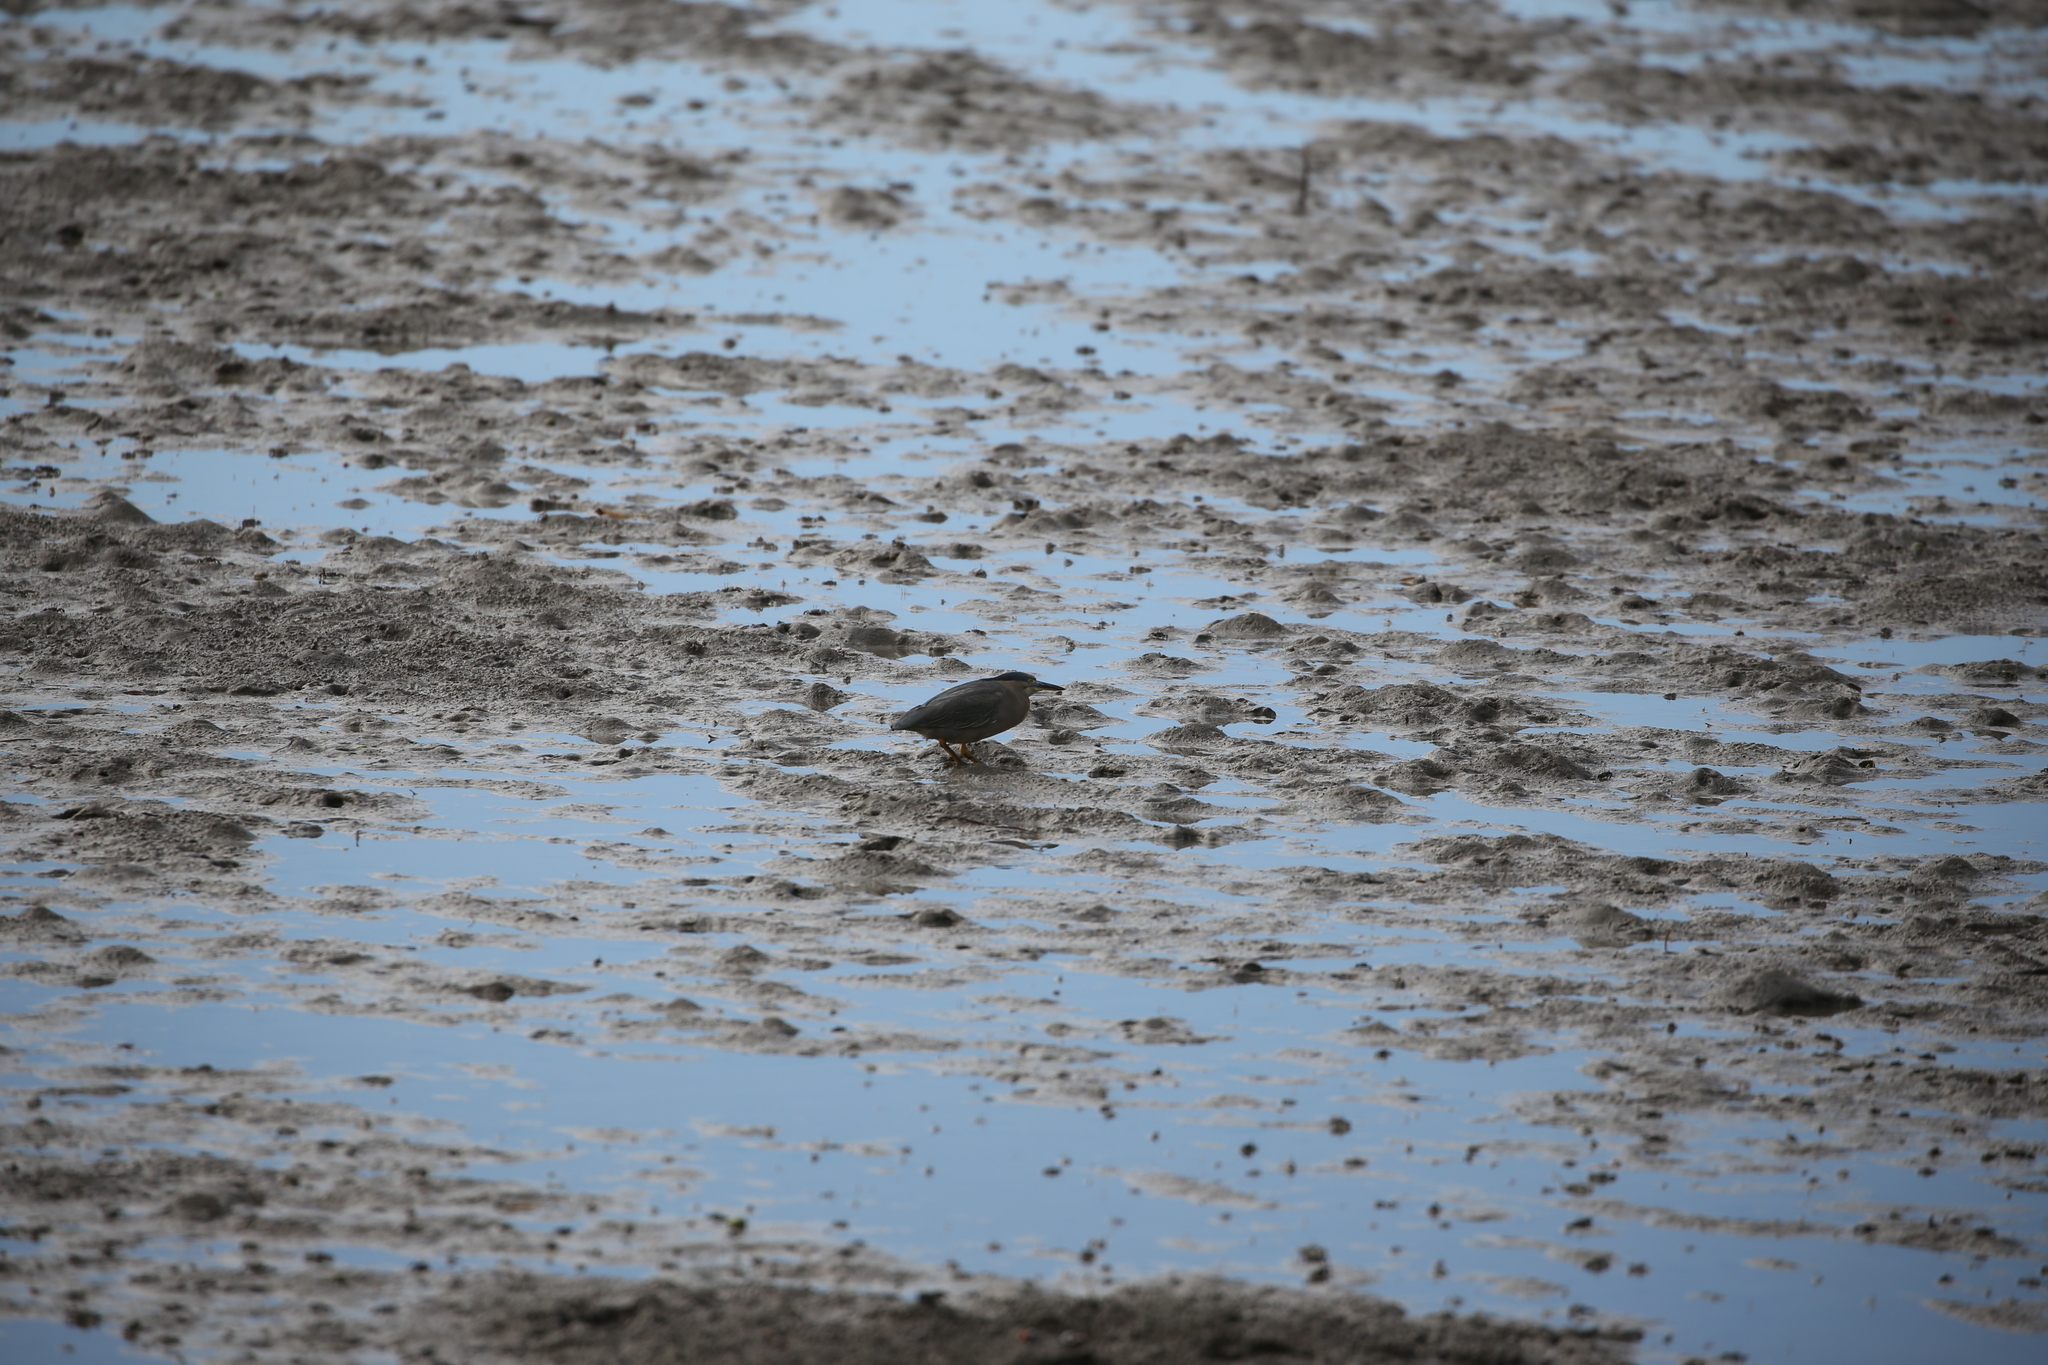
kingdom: Animalia
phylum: Chordata
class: Aves
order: Pelecaniformes
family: Ardeidae
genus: Butorides
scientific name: Butorides striata
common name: Striated heron
